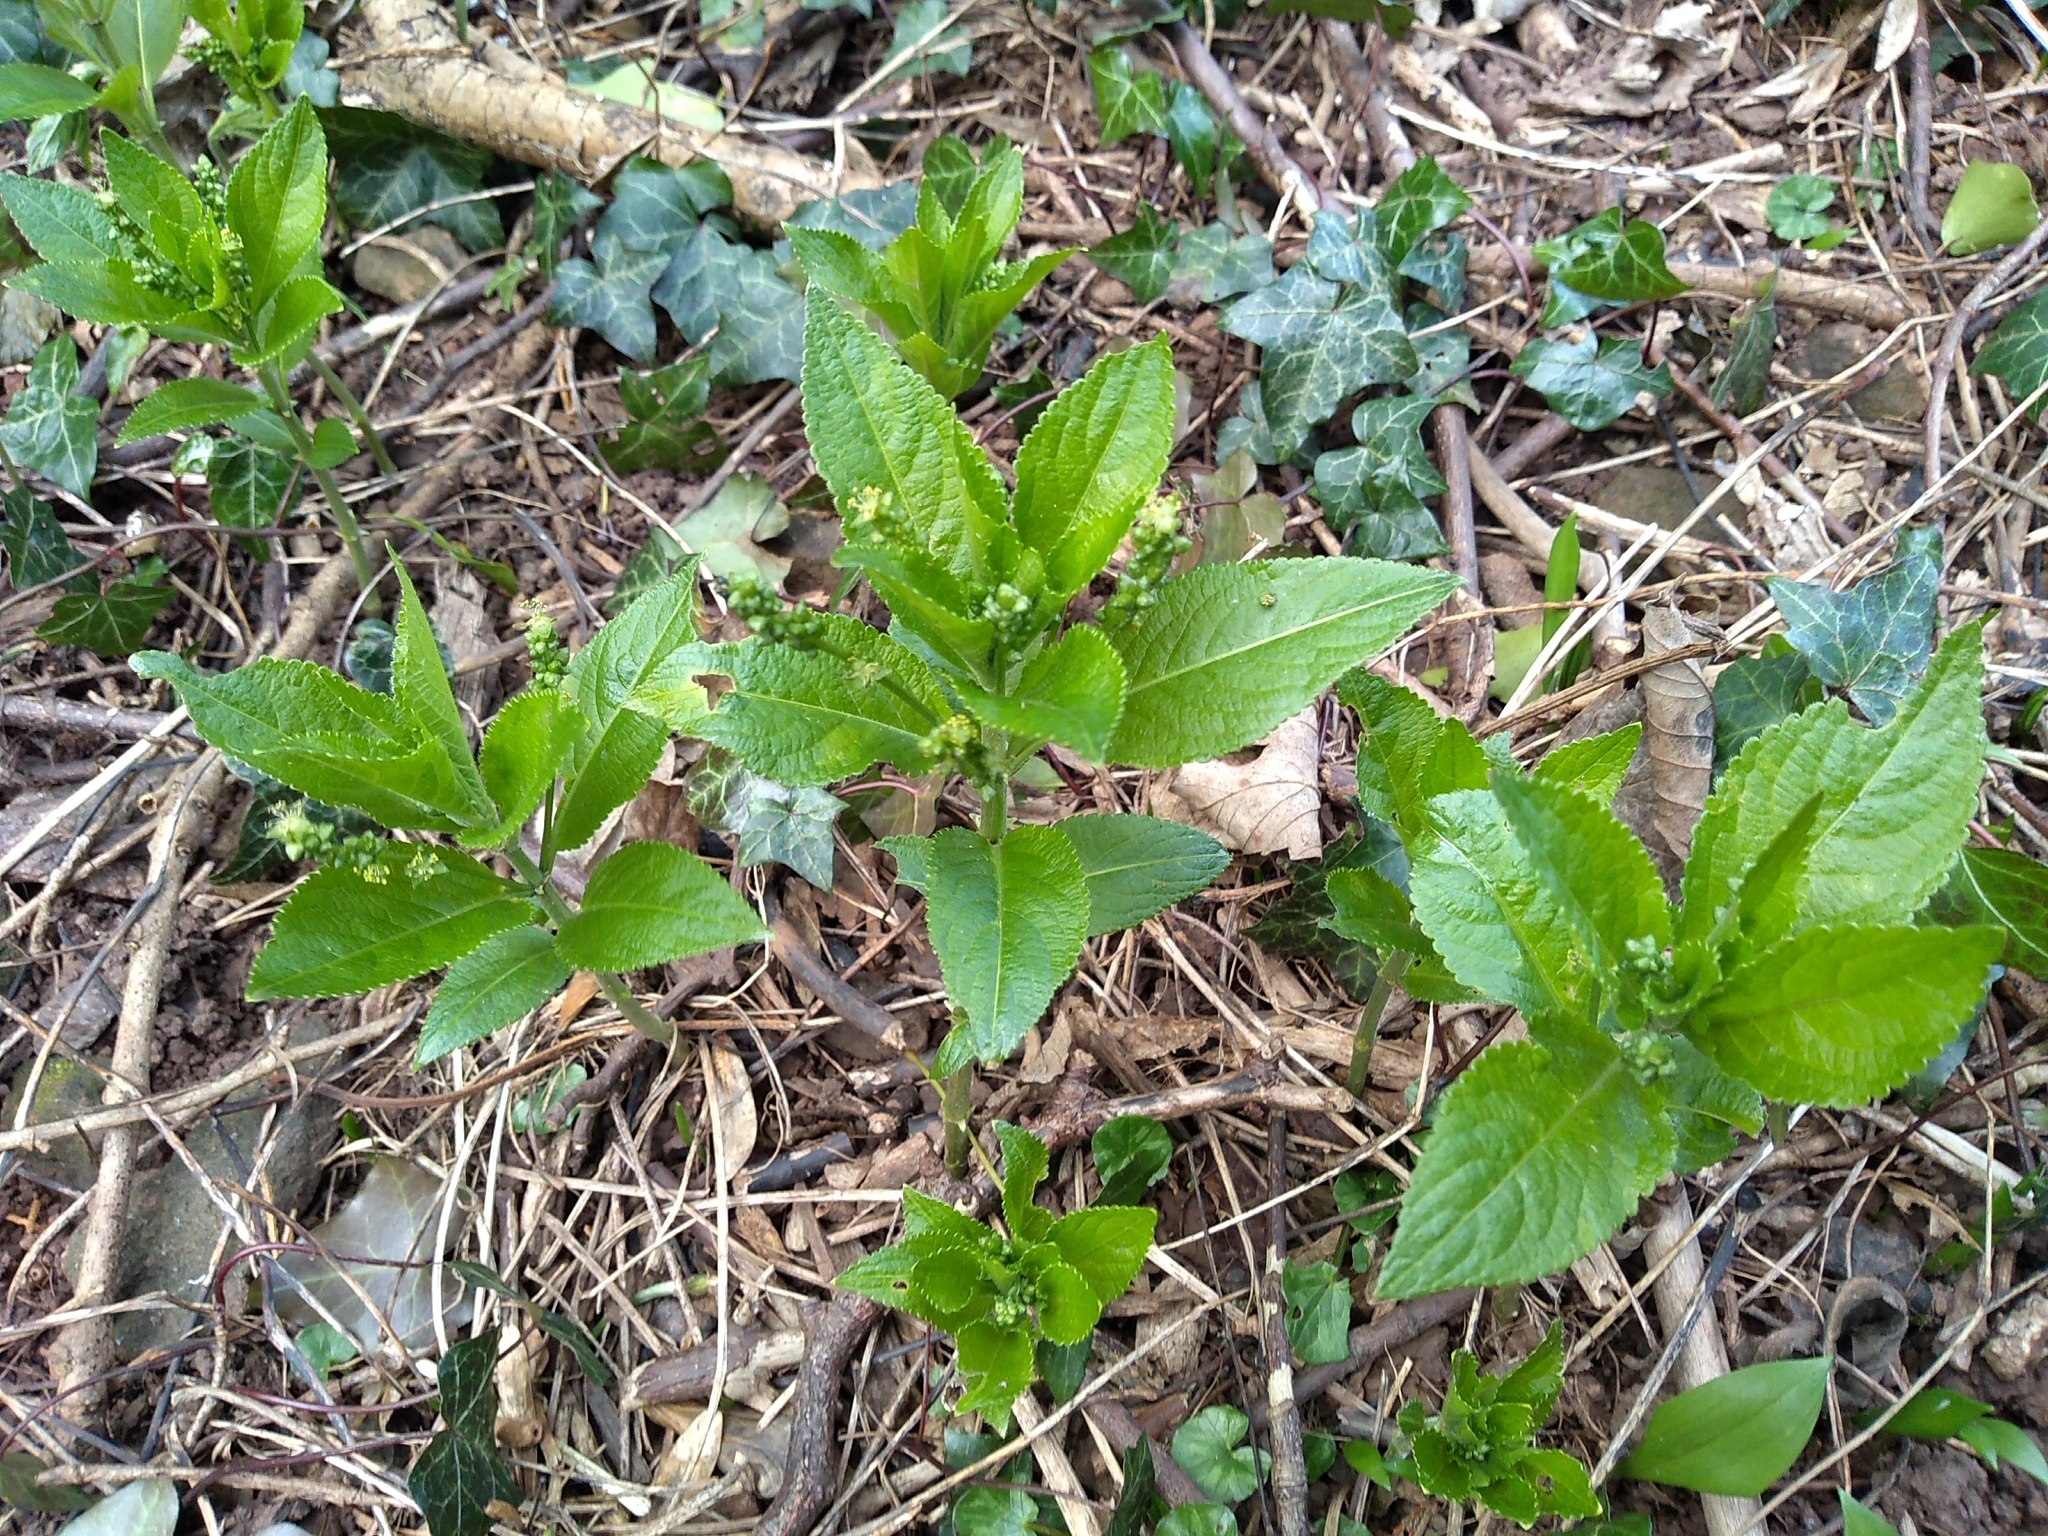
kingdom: Plantae
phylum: Tracheophyta
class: Magnoliopsida
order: Malpighiales
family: Euphorbiaceae
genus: Mercurialis
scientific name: Mercurialis perennis
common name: Dog mercury
